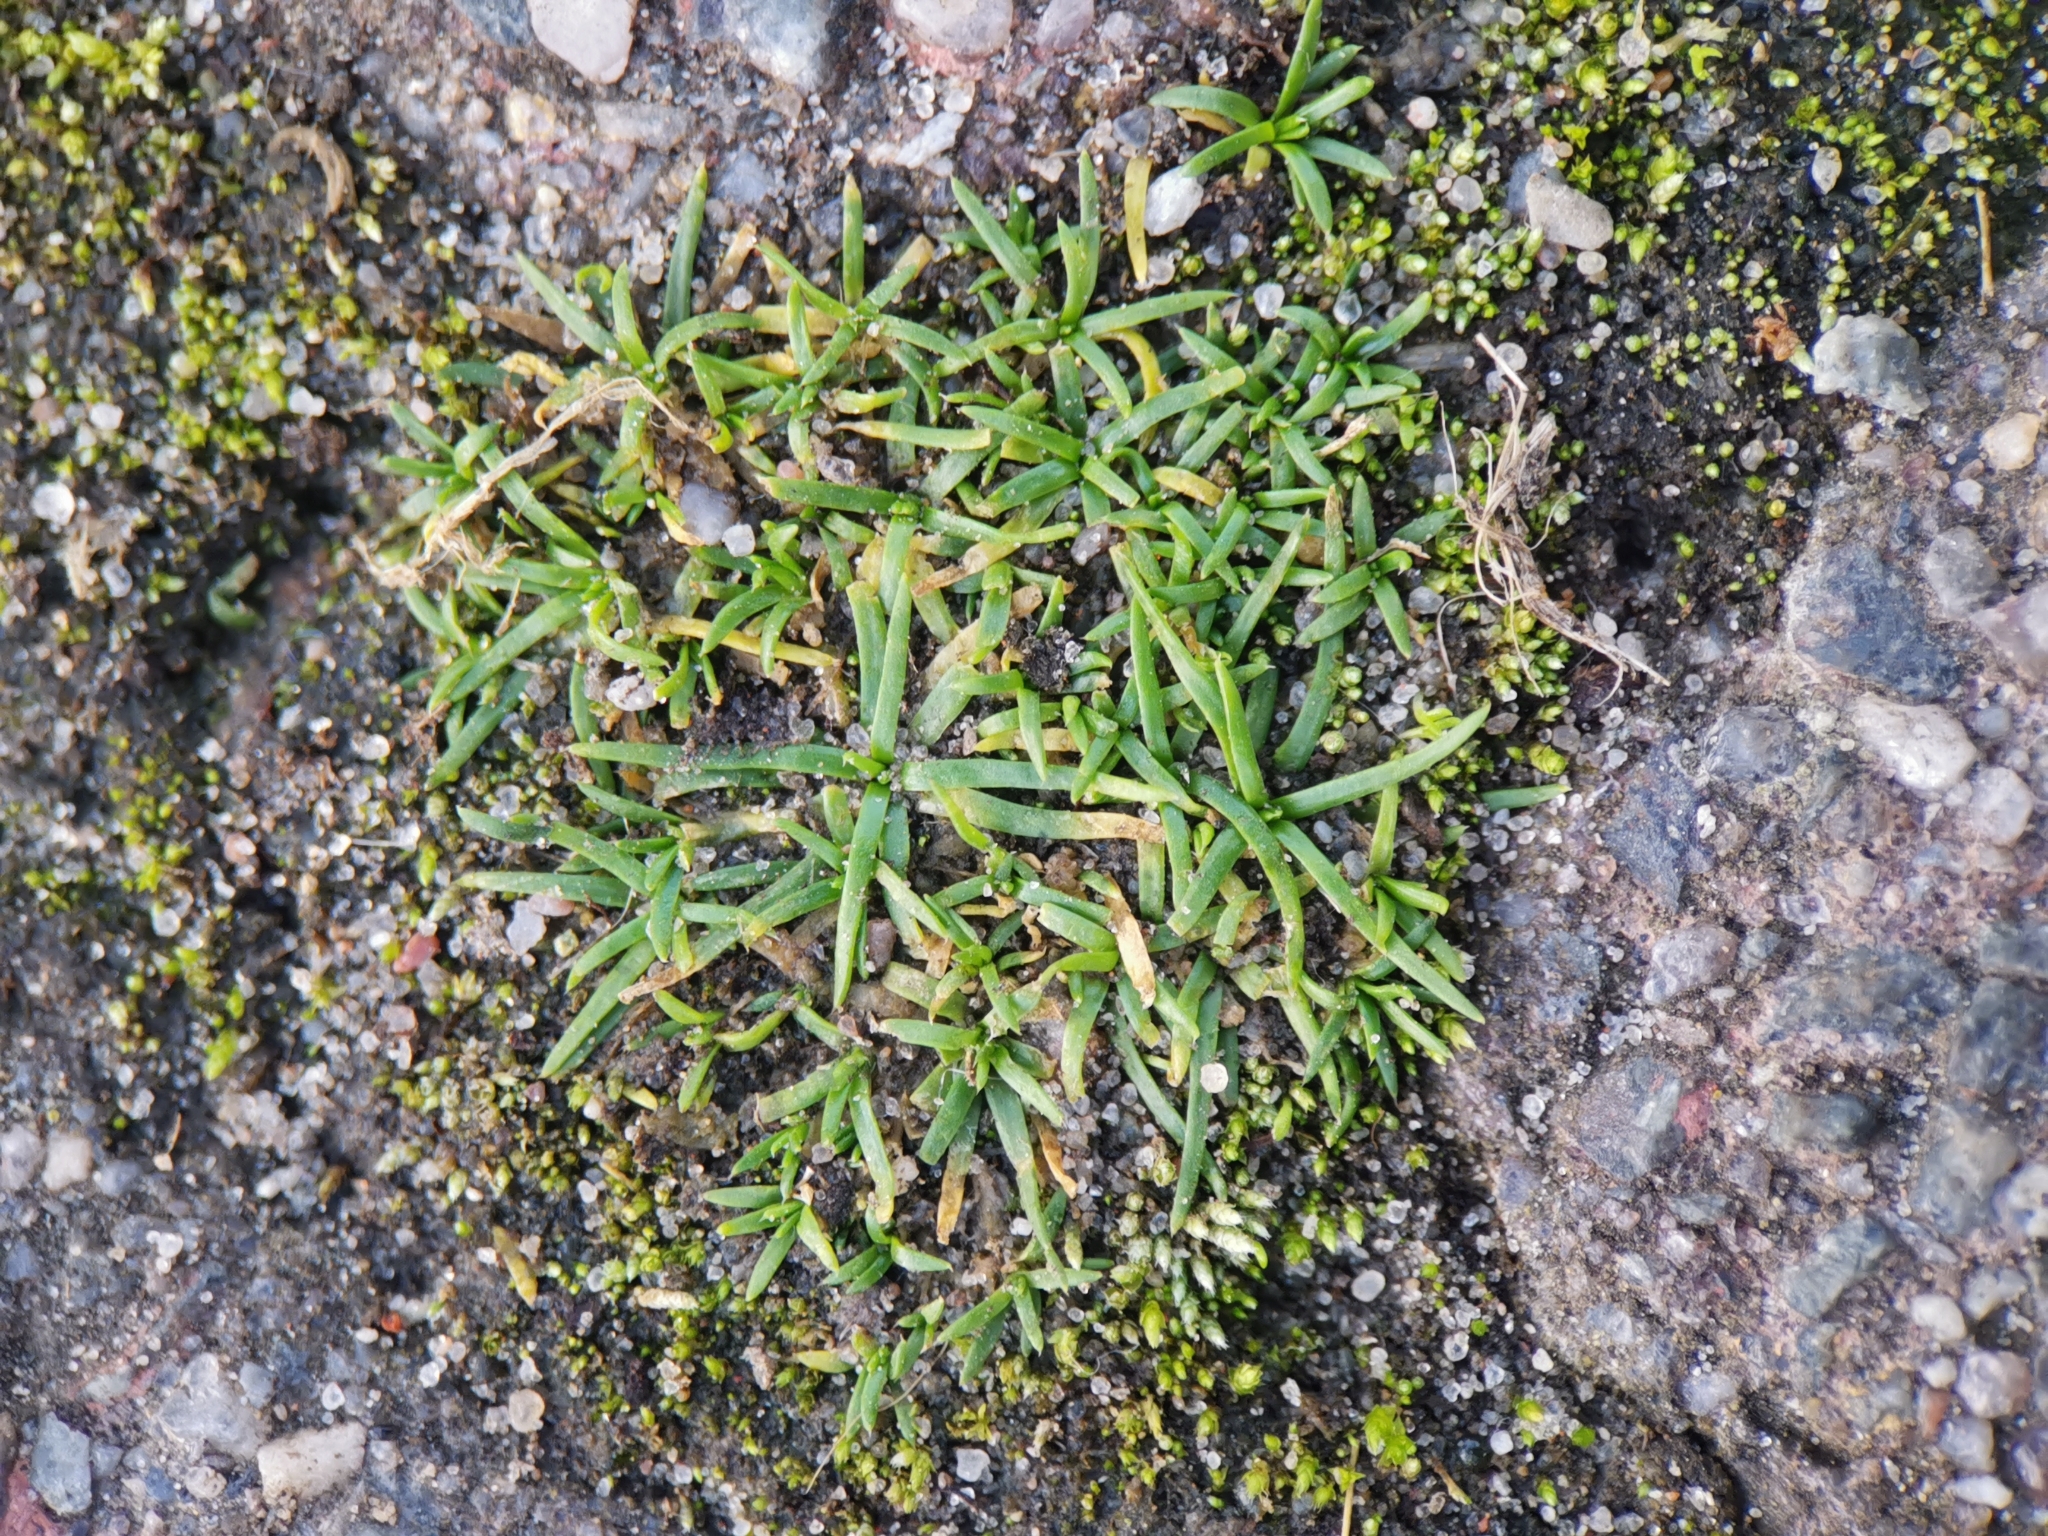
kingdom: Plantae
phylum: Tracheophyta
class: Magnoliopsida
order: Caryophyllales
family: Caryophyllaceae
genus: Sagina
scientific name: Sagina procumbens
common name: Procumbent pearlwort
